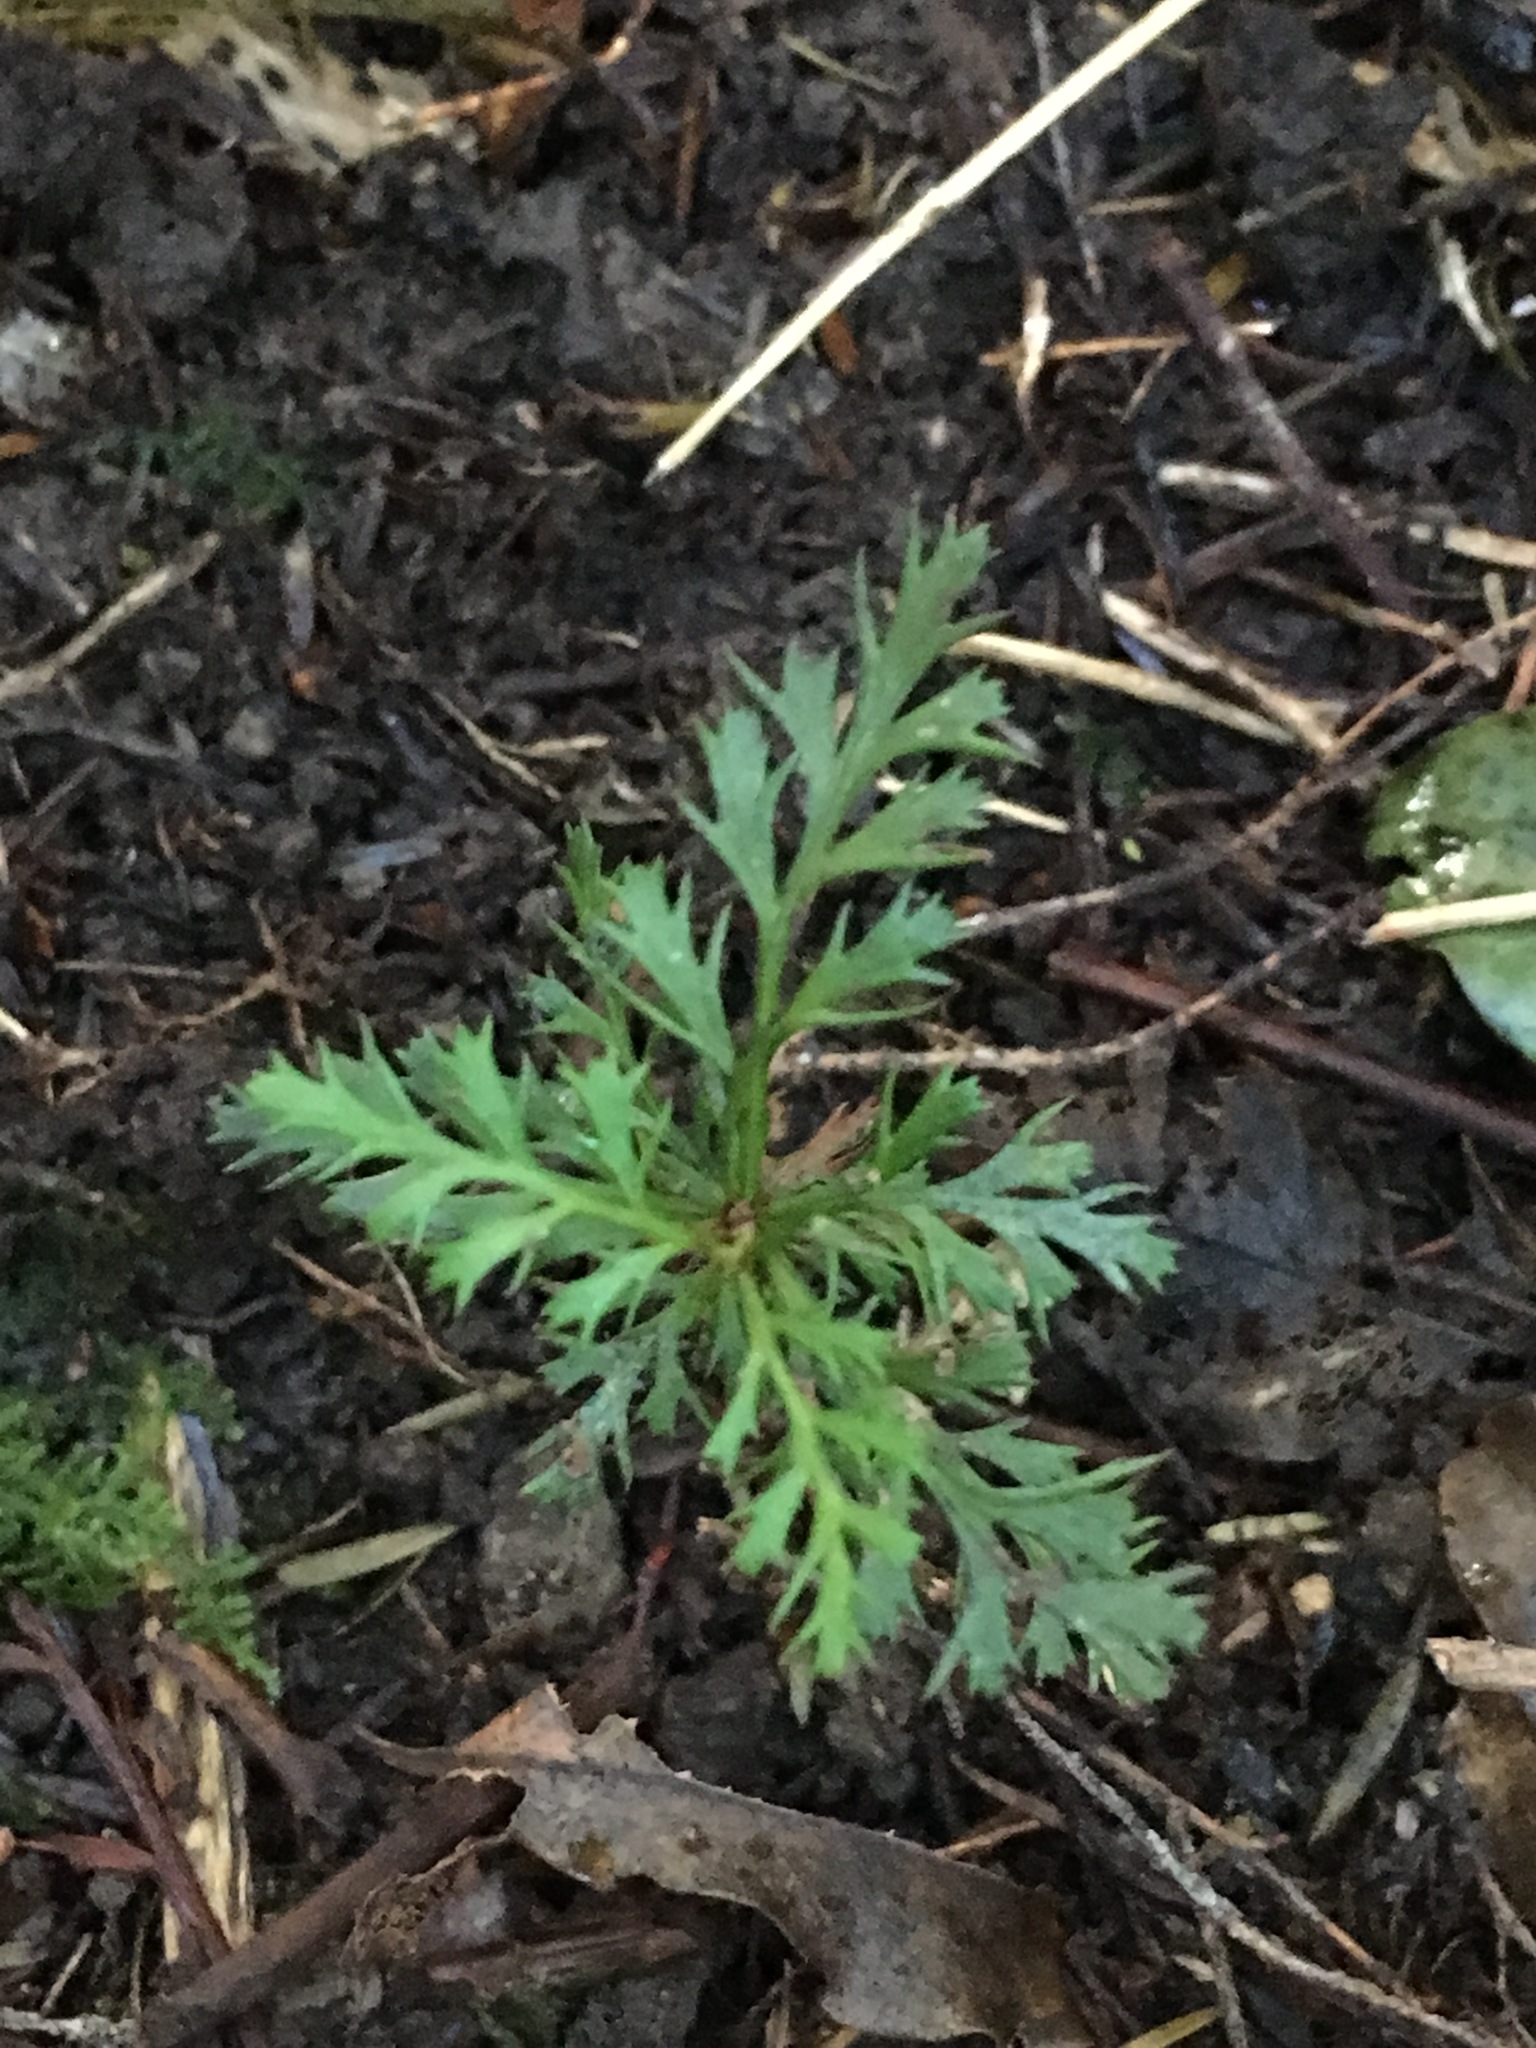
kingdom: Plantae
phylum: Tracheophyta
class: Pinopsida
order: Pinales
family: Phyllocladaceae
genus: Phyllocladus
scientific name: Phyllocladus trichomanoides
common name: Celery pine
